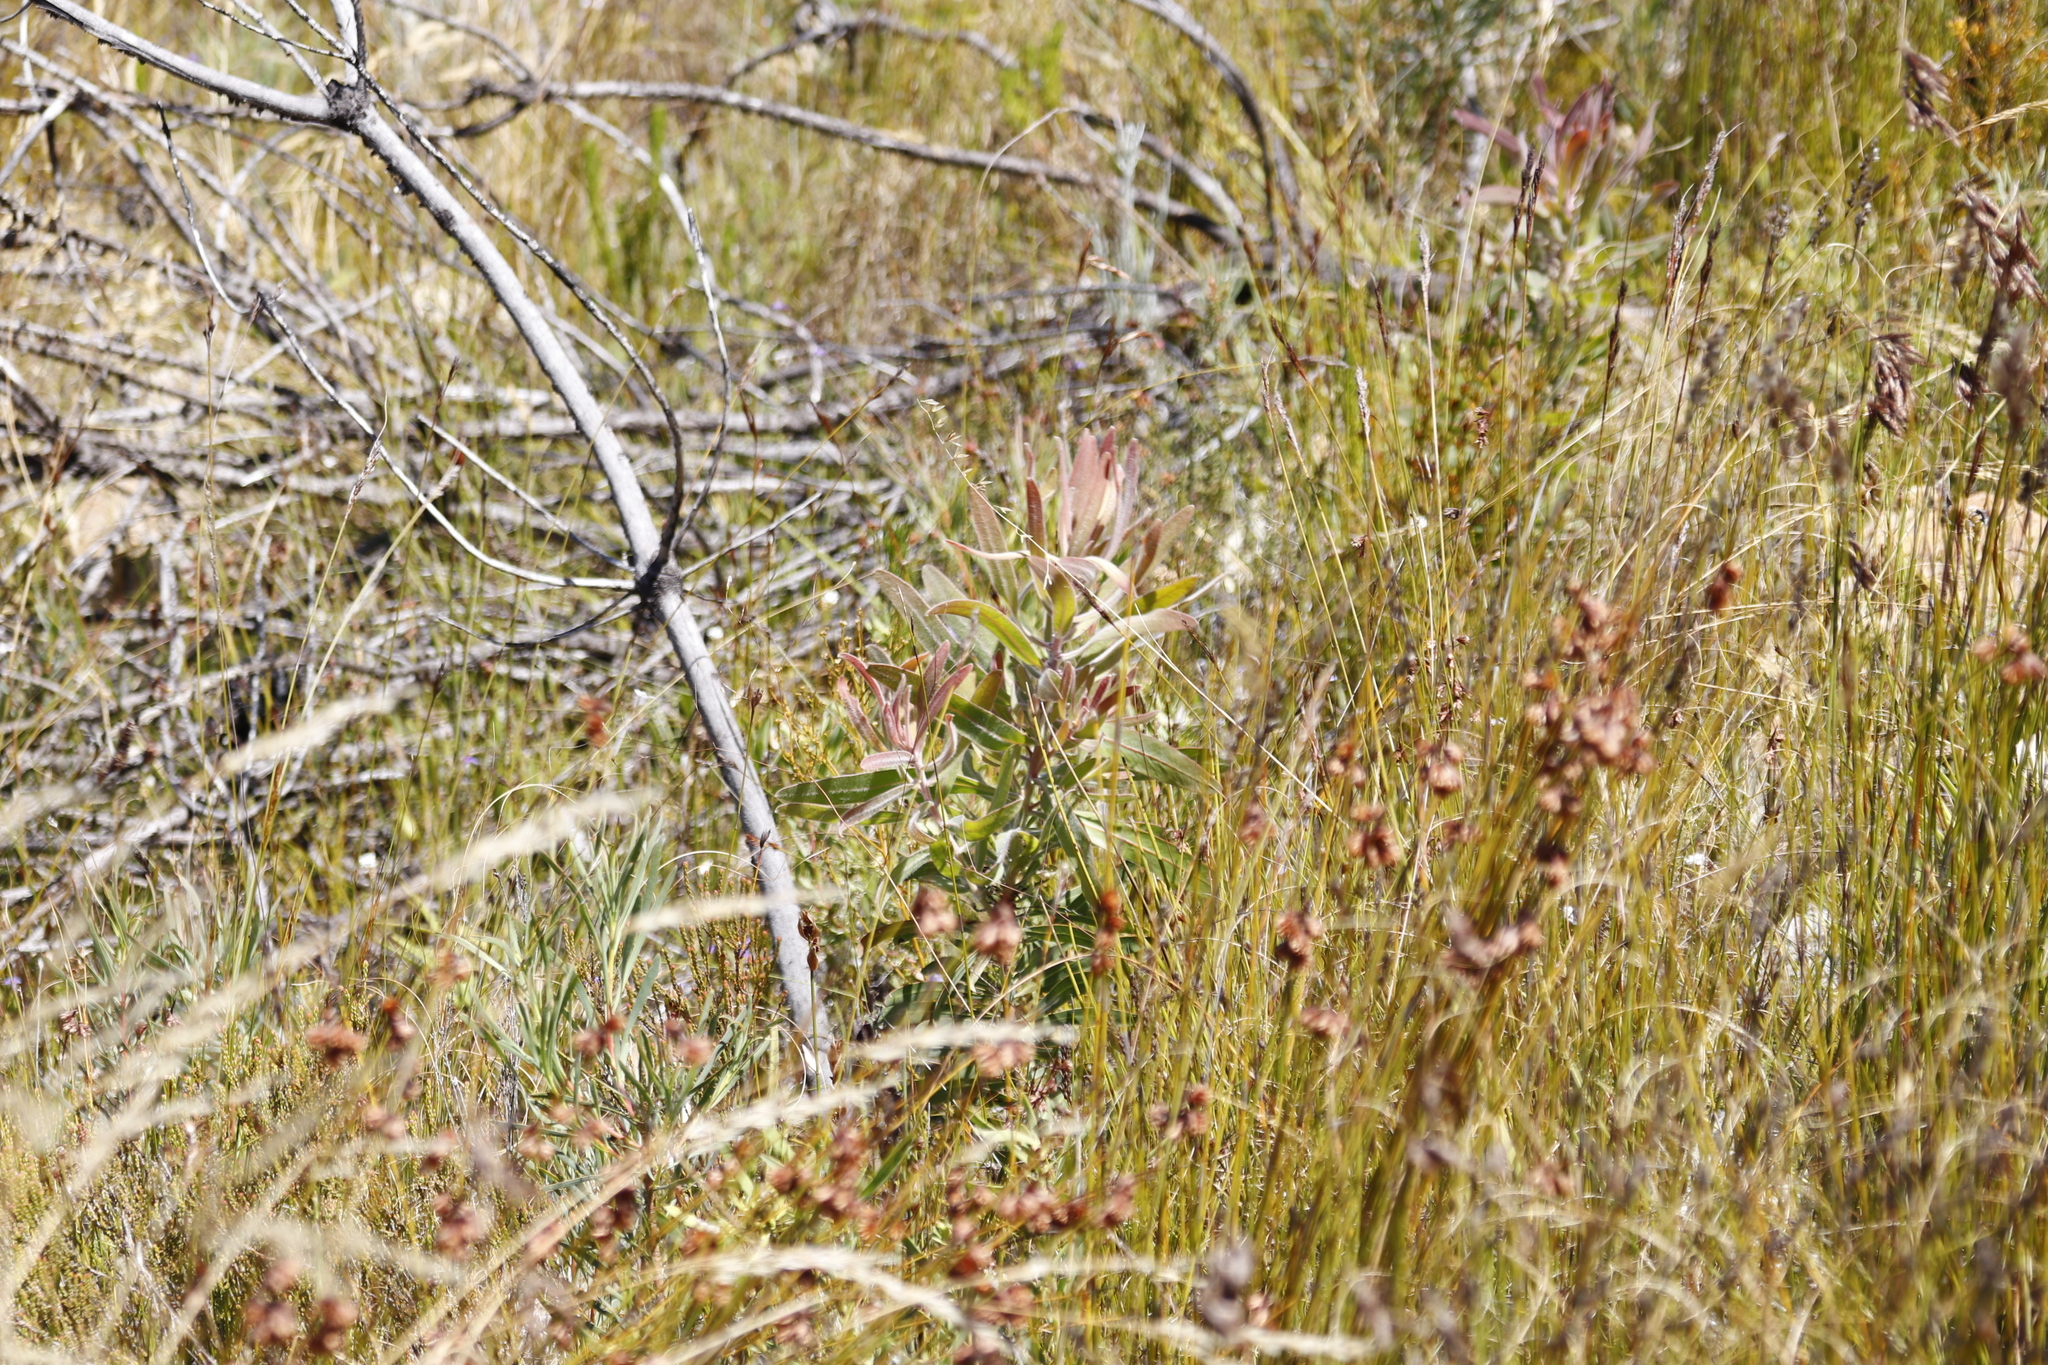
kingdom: Plantae
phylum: Tracheophyta
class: Magnoliopsida
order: Proteales
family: Proteaceae
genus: Protea
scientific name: Protea neriifolia
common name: Blue sugarbush
